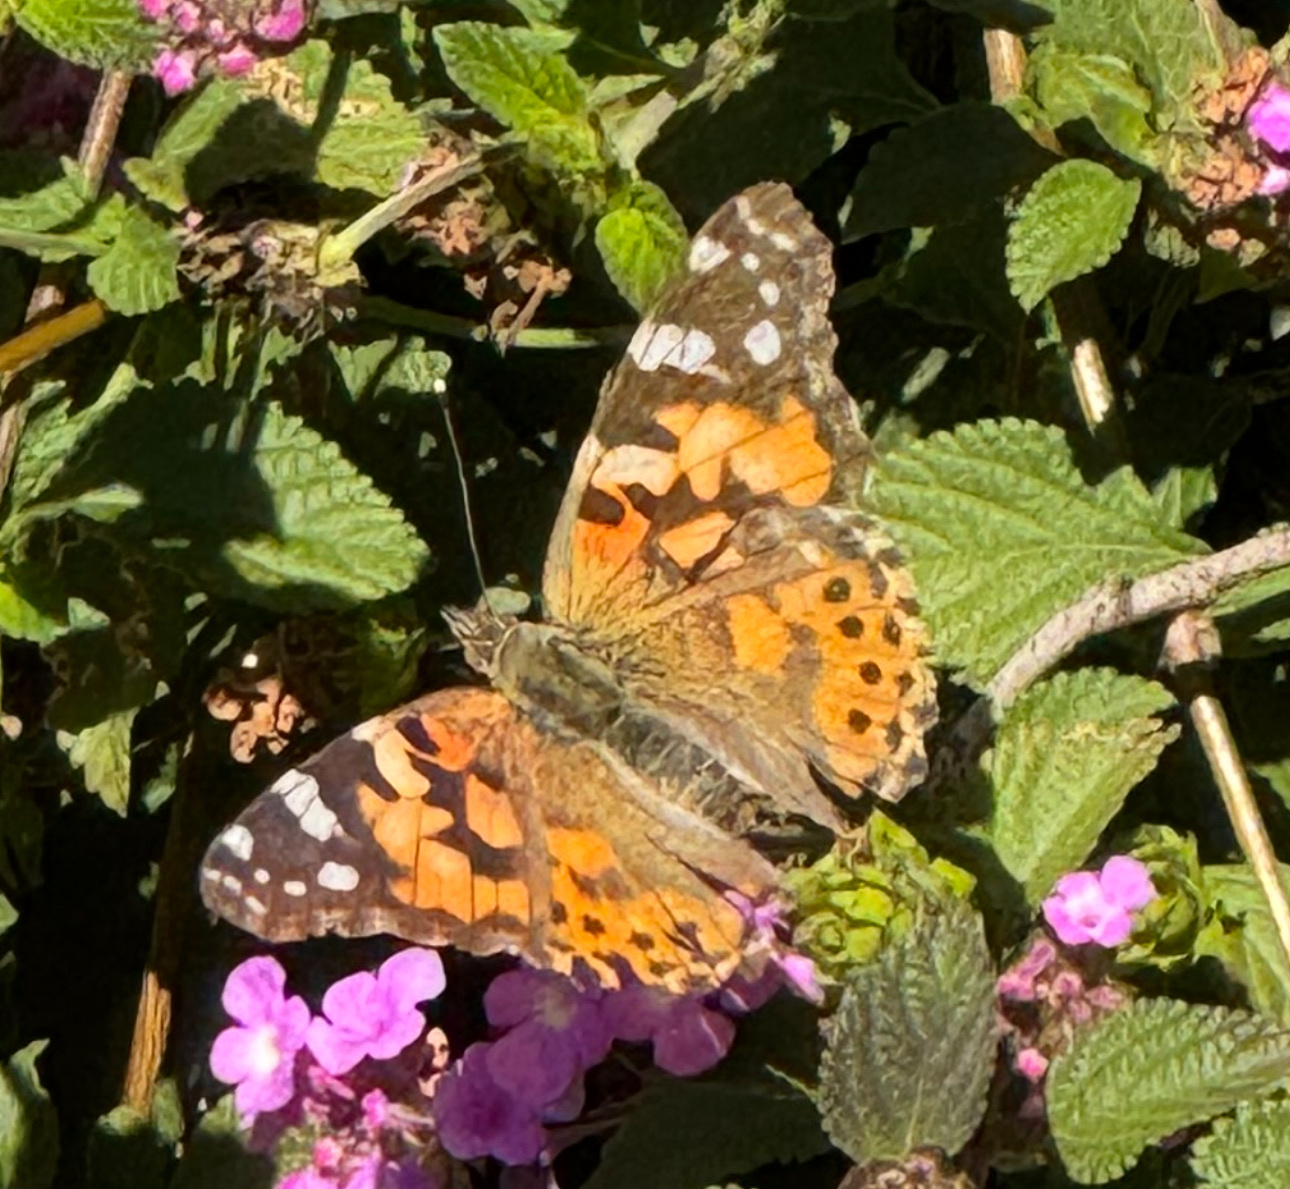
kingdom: Animalia
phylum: Arthropoda
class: Insecta
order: Lepidoptera
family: Nymphalidae
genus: Vanessa
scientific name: Vanessa cardui
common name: Painted lady
